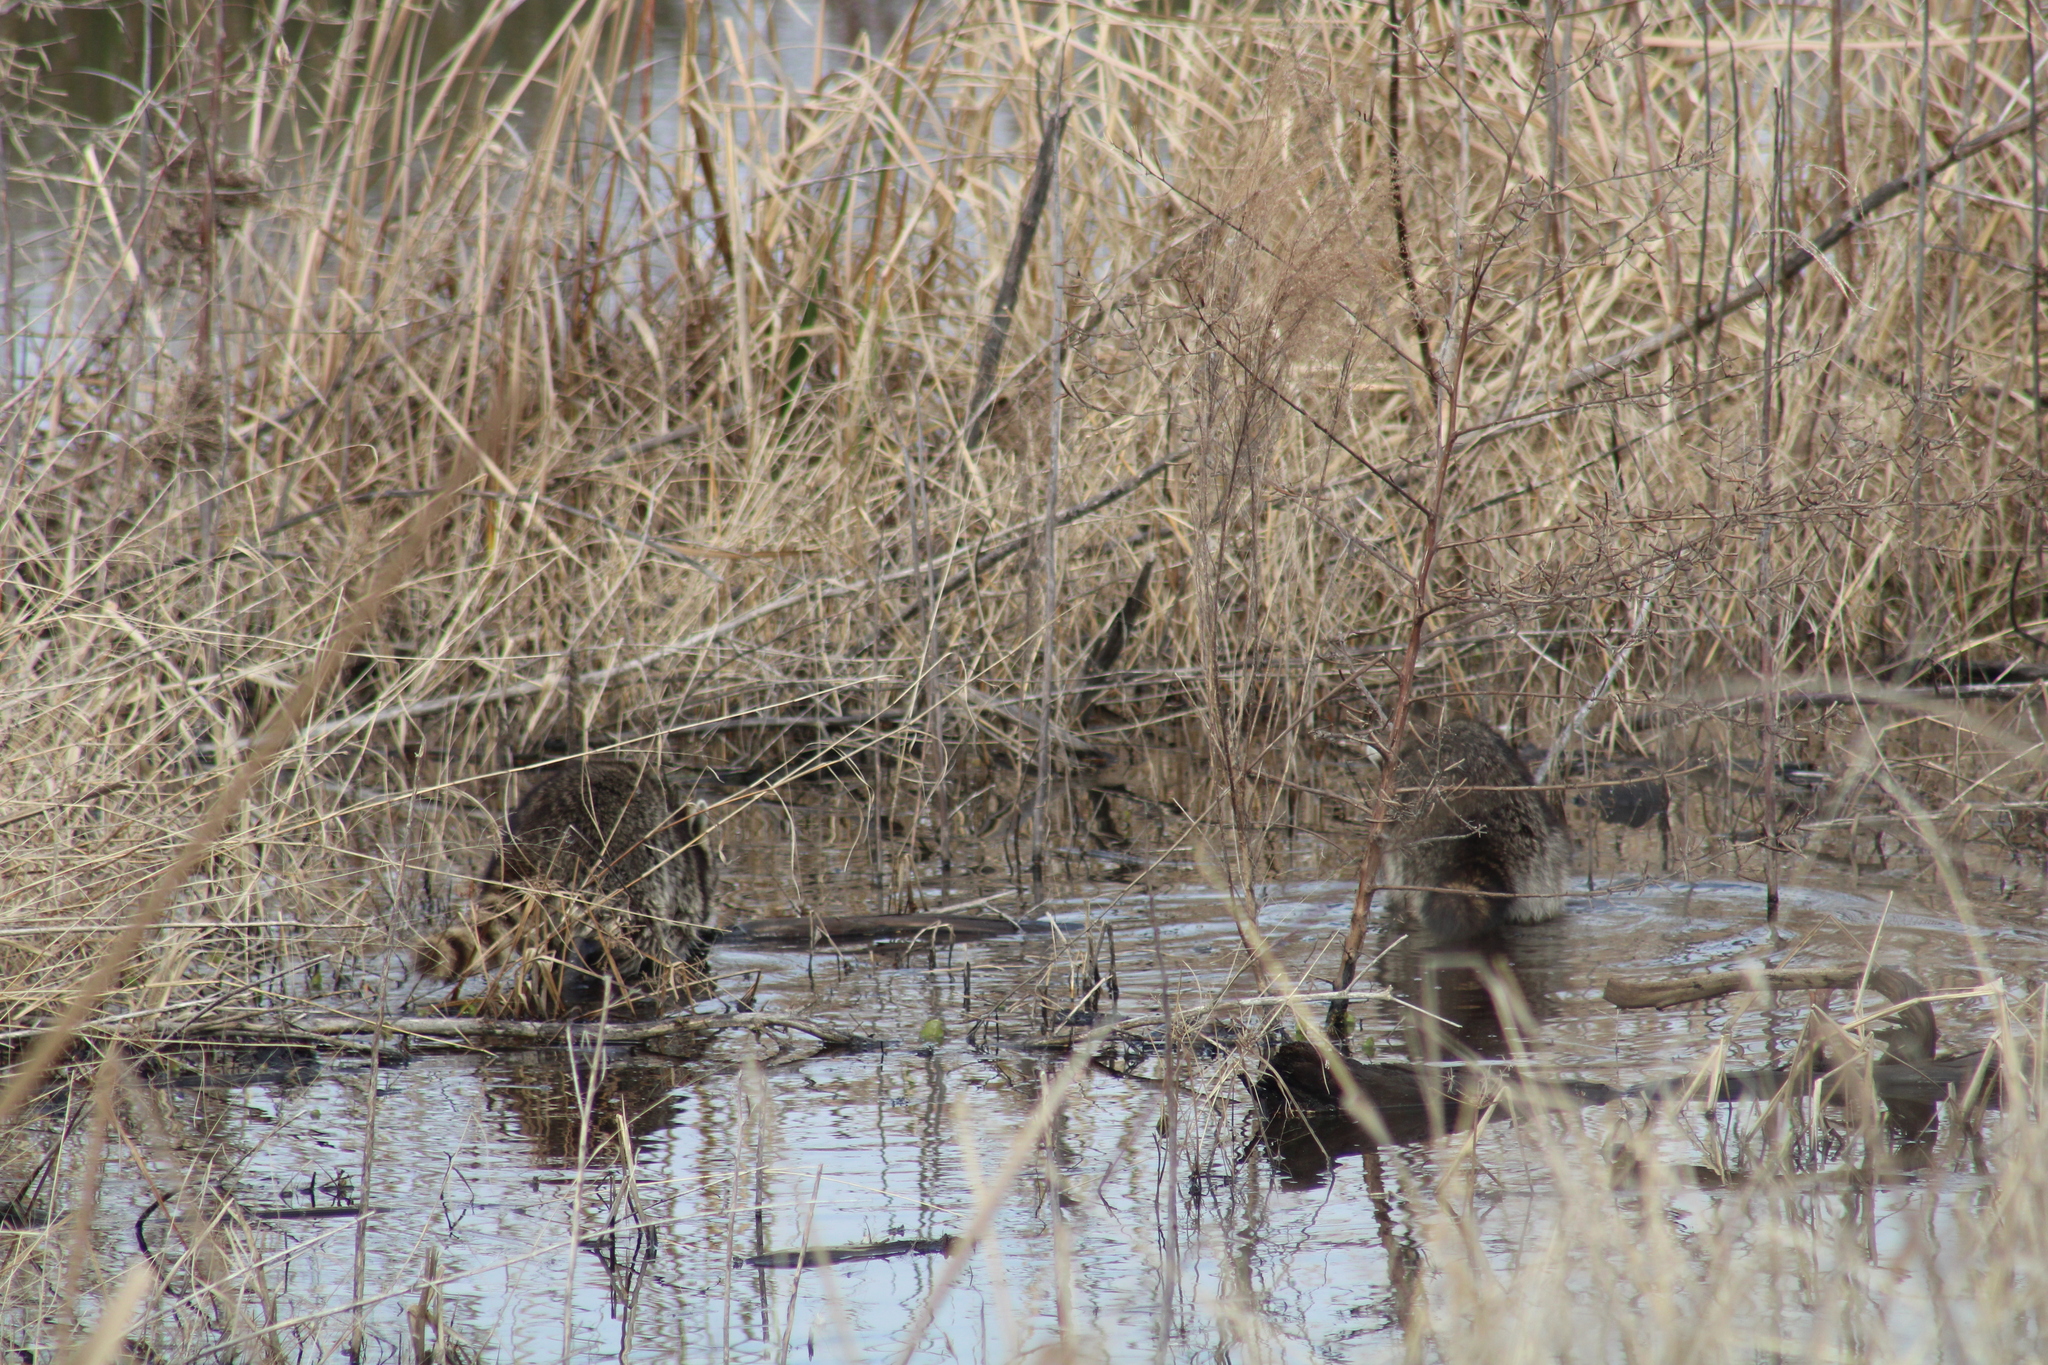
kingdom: Animalia
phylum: Chordata
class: Mammalia
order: Carnivora
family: Procyonidae
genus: Procyon
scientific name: Procyon lotor
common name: Raccoon
